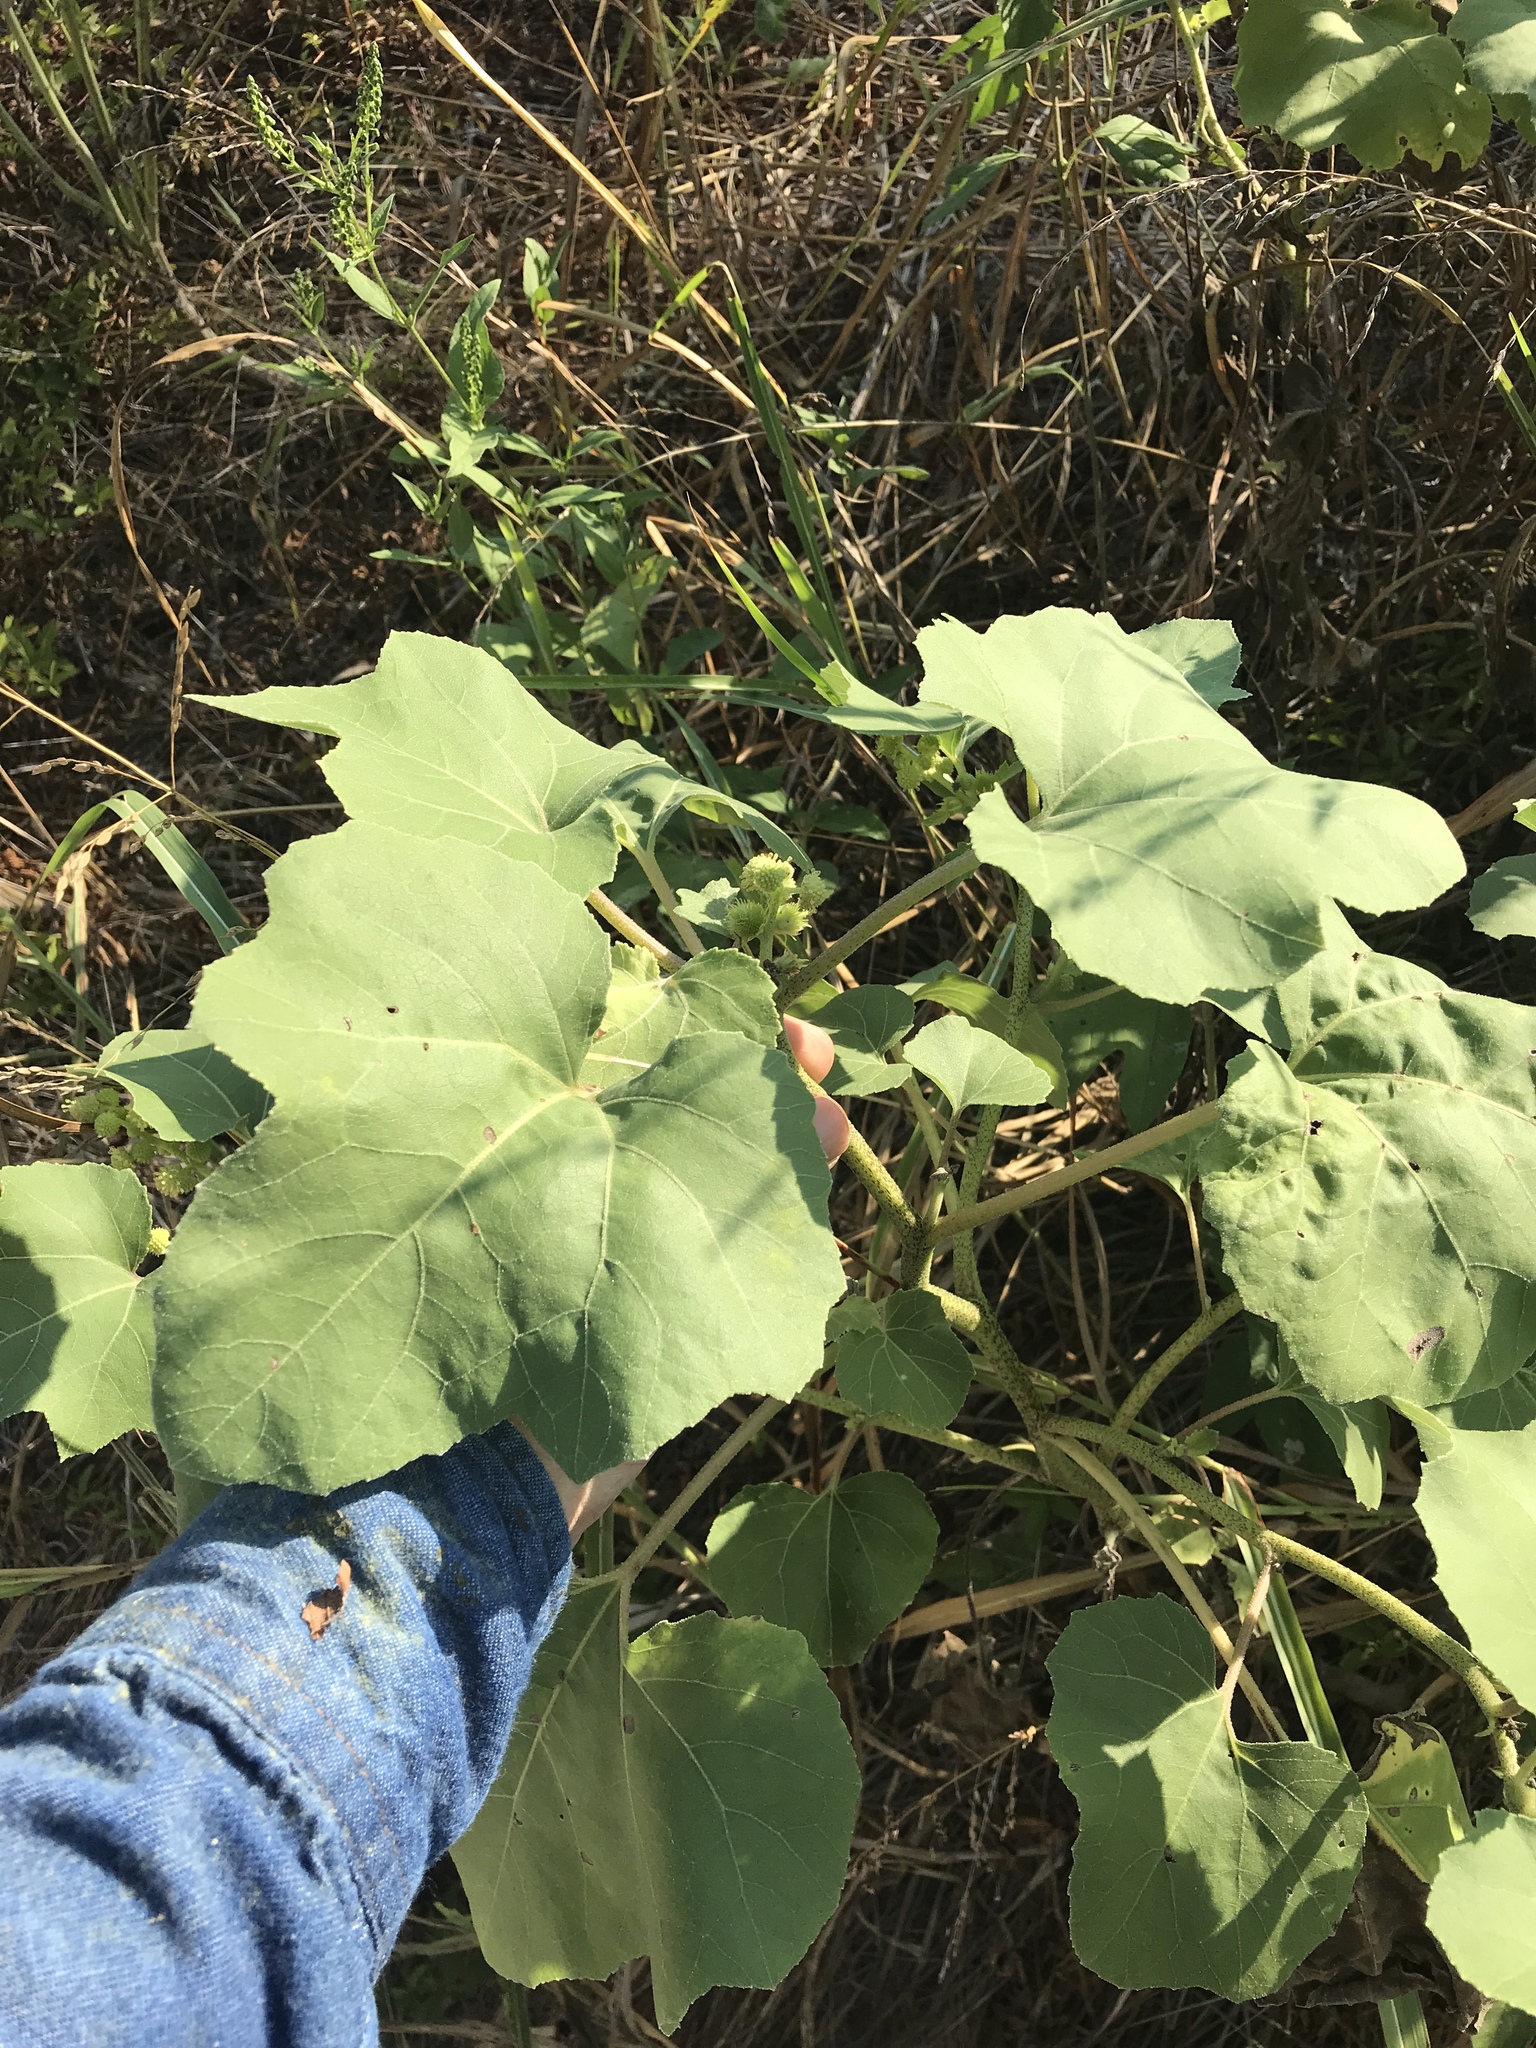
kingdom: Plantae
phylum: Tracheophyta
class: Magnoliopsida
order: Asterales
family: Asteraceae
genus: Xanthium
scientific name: Xanthium strumarium
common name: Rough cocklebur
